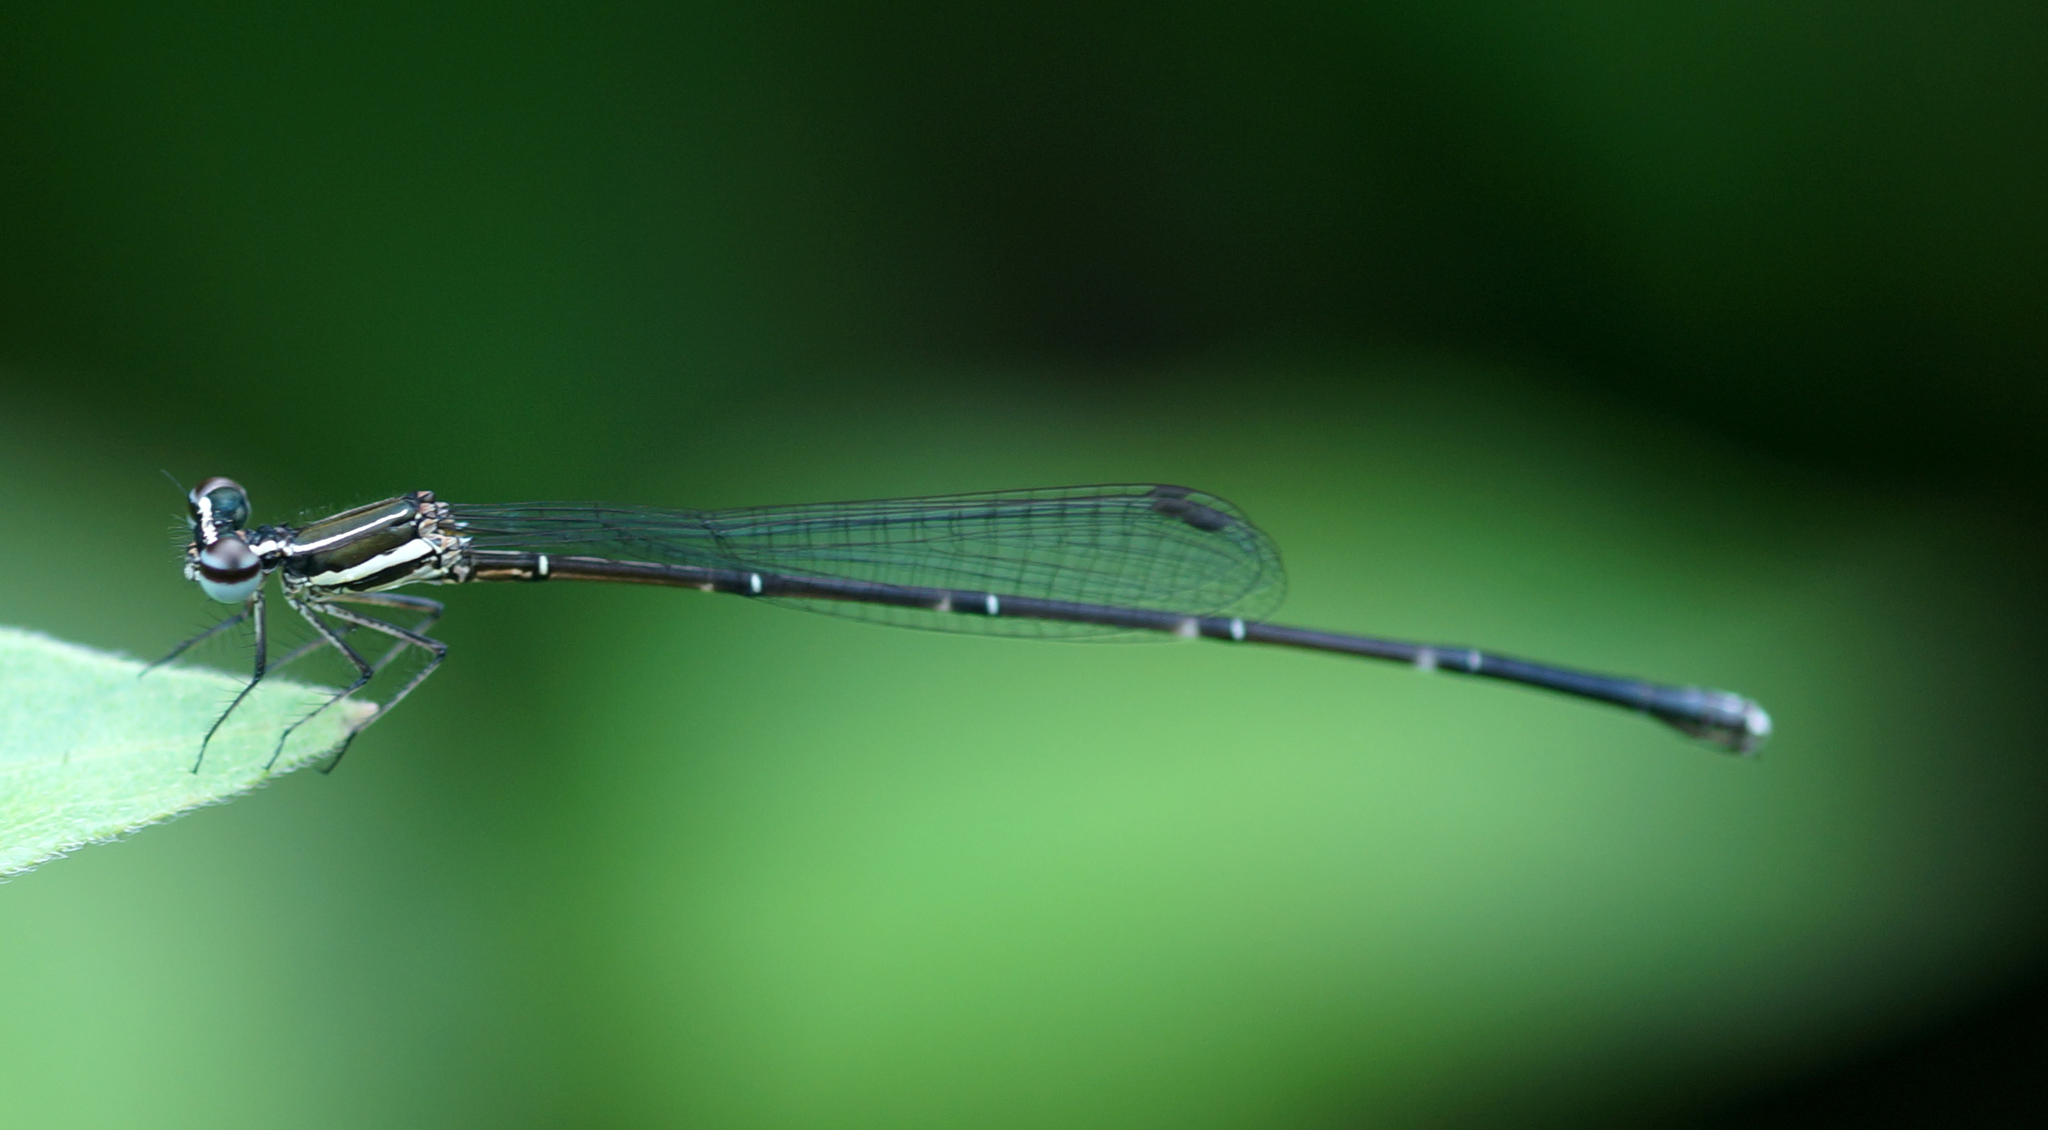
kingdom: Animalia
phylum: Arthropoda
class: Insecta
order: Odonata
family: Platycnemididae
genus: Prodasineura
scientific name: Prodasineura coerulescens
